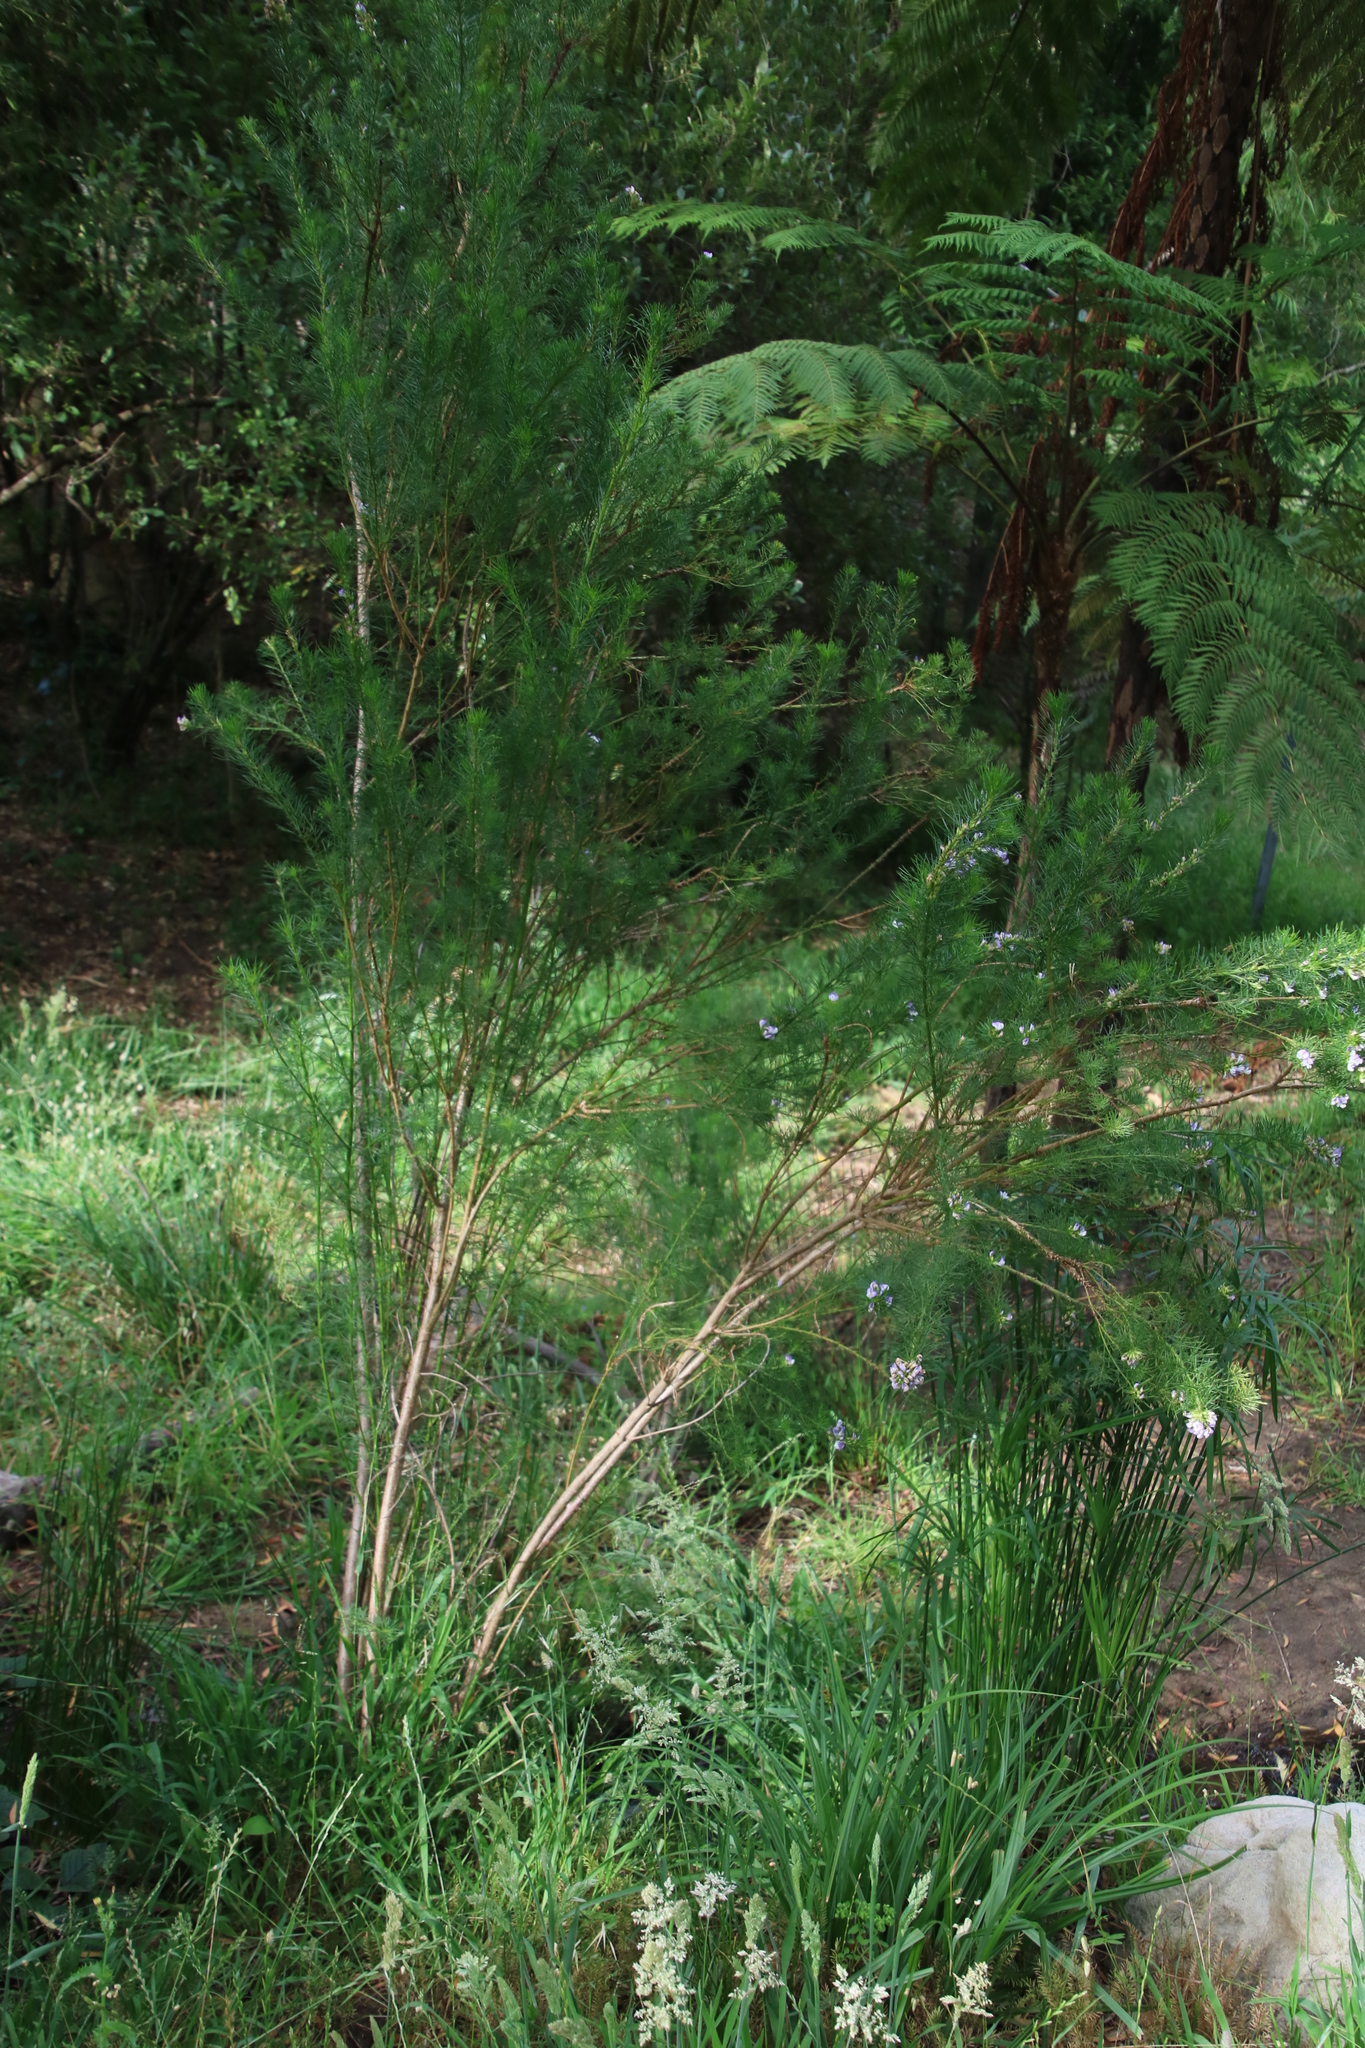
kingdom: Plantae
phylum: Tracheophyta
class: Magnoliopsida
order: Fabales
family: Fabaceae
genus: Psoralea
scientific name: Psoralea pinnata
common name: African scurfpea
